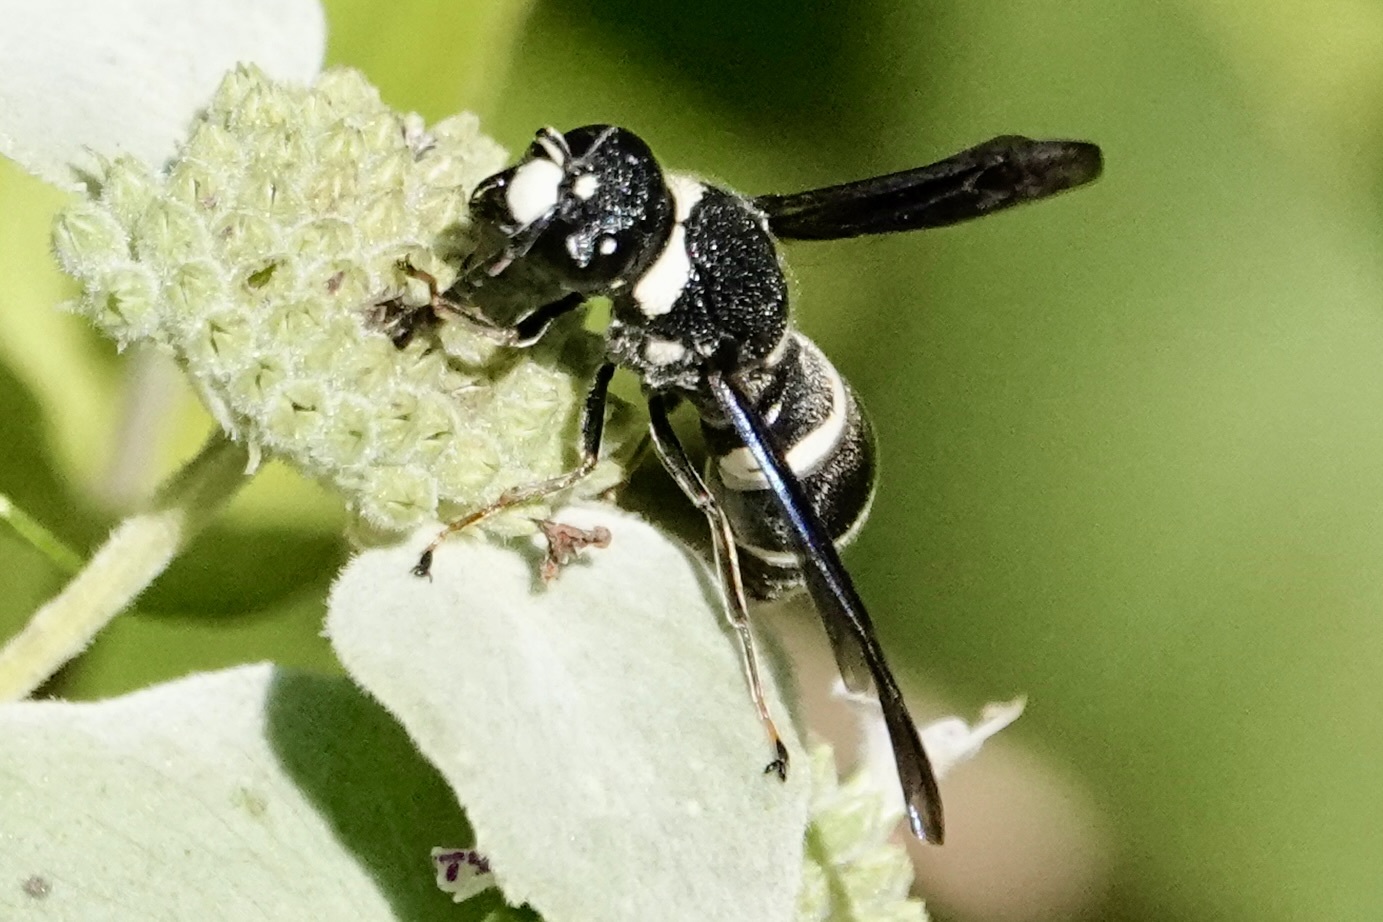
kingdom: Animalia
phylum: Arthropoda
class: Insecta
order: Hymenoptera
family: Eumenidae
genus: Euodynerus
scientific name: Euodynerus schwarzi
